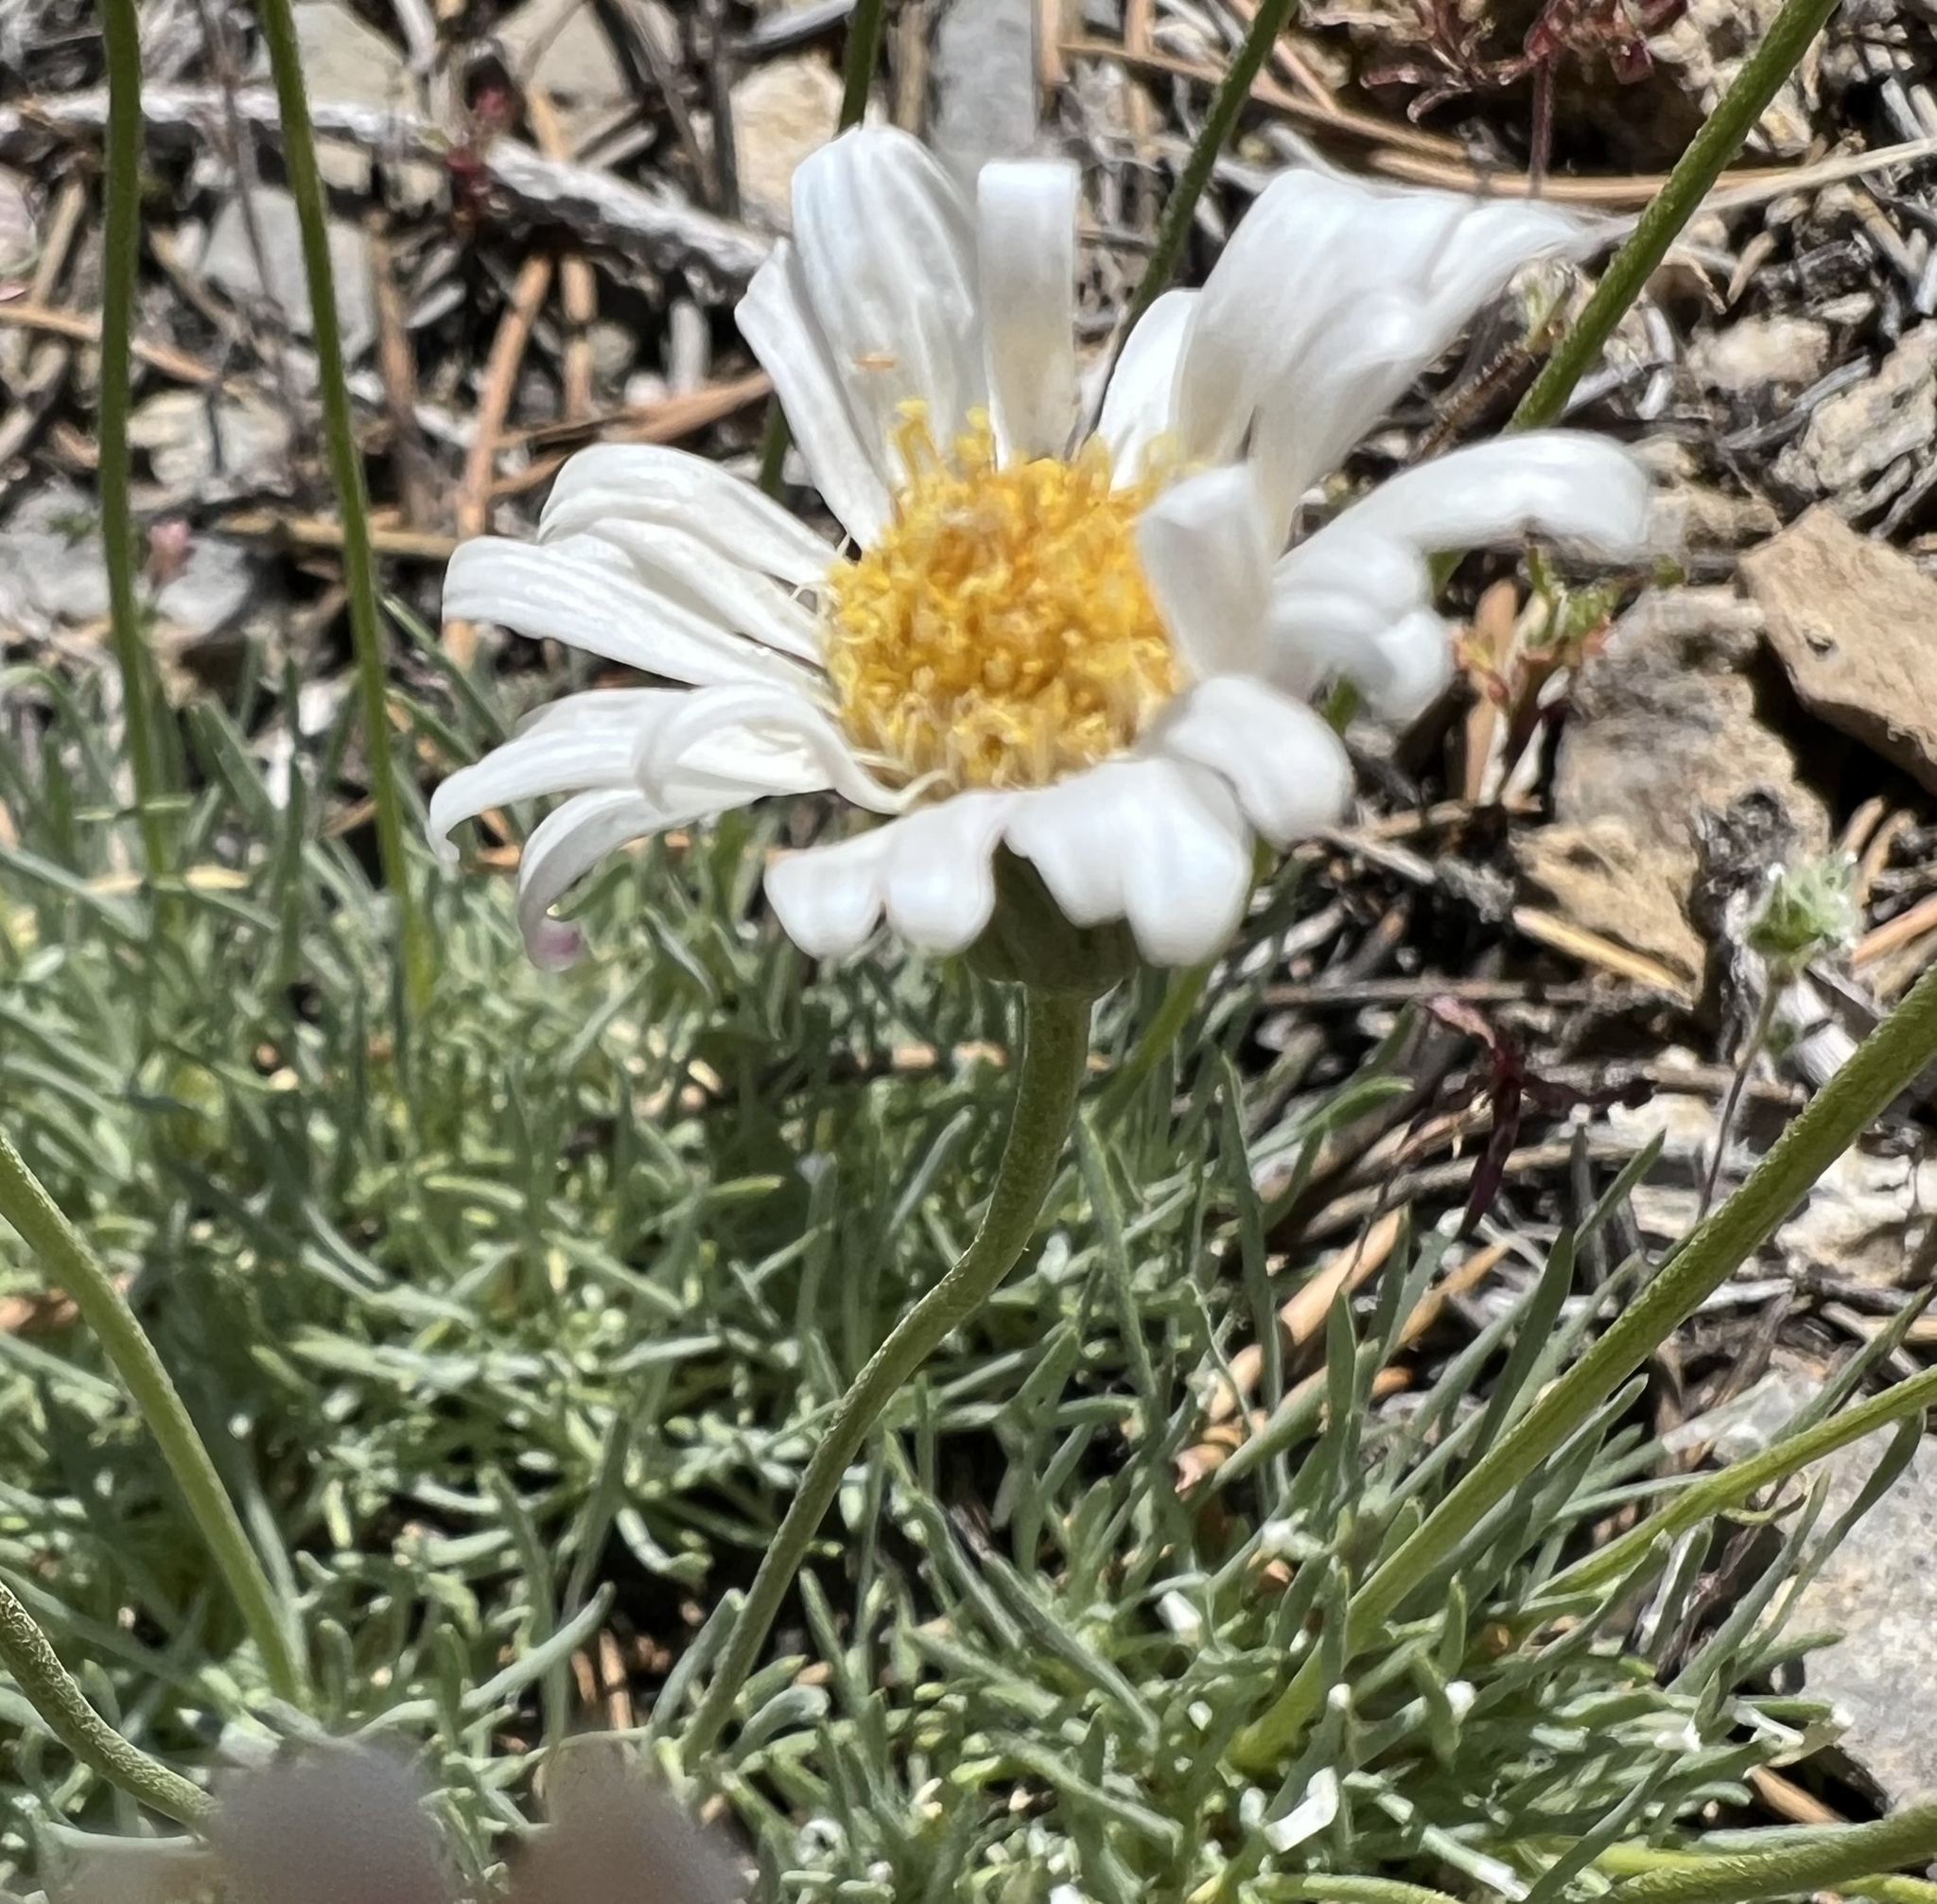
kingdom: Plantae
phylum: Tracheophyta
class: Magnoliopsida
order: Asterales
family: Asteraceae
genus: Erigeron
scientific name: Erigeron compactus
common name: Fern-leaf fleabane
